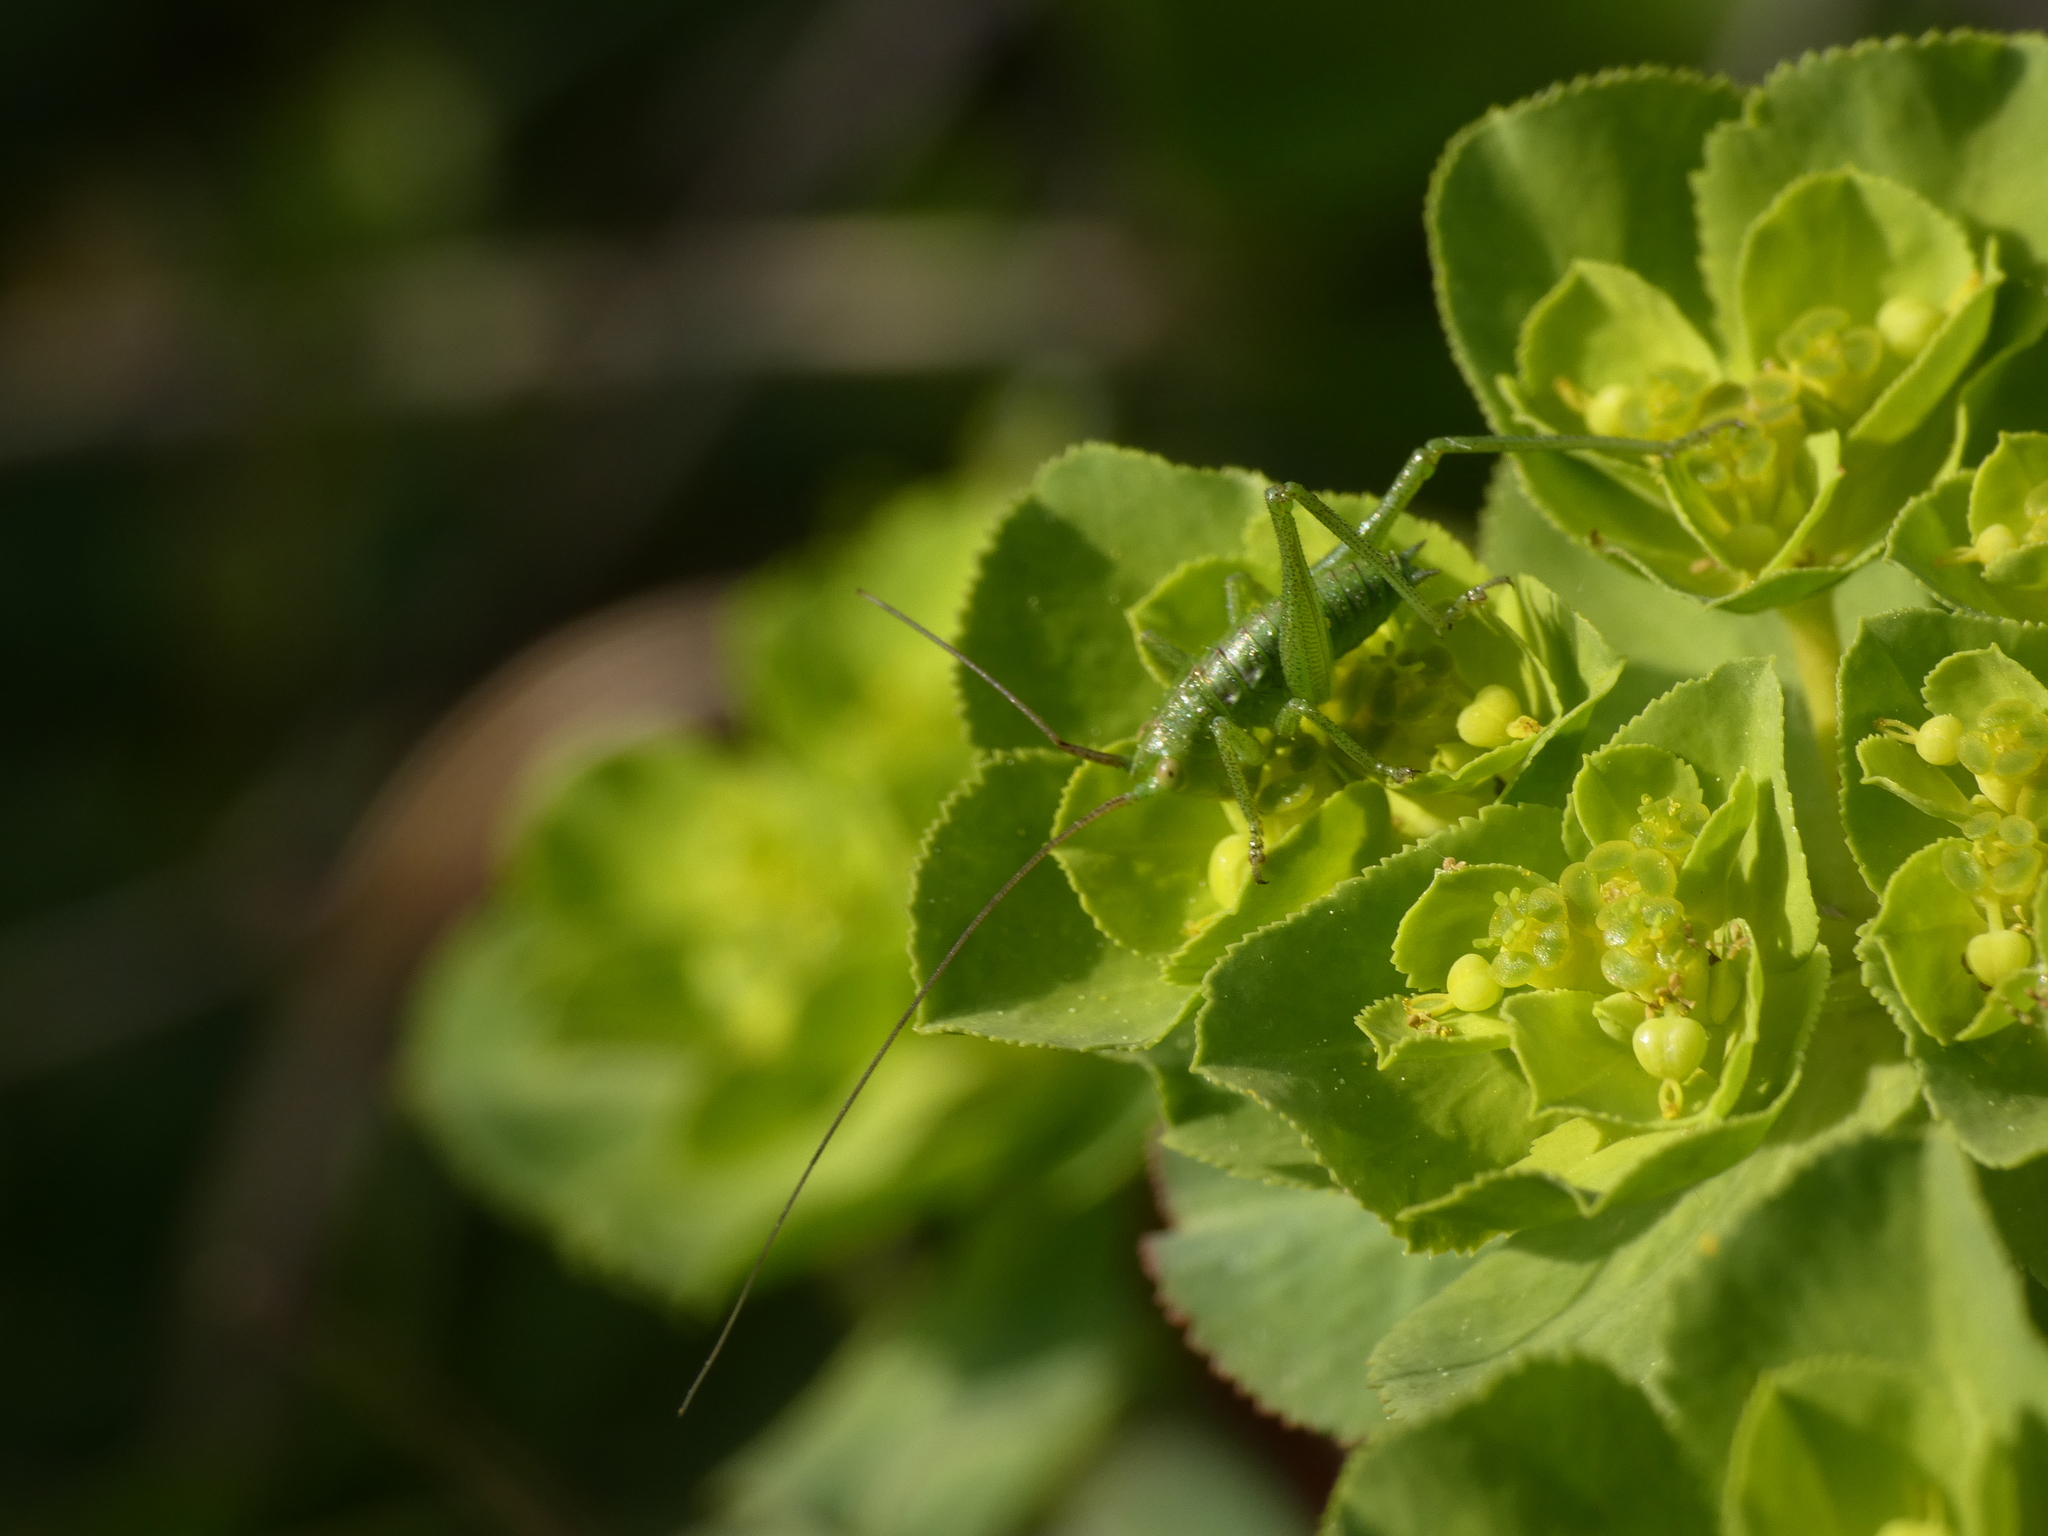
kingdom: Animalia
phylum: Arthropoda
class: Insecta
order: Orthoptera
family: Tettigoniidae
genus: Tettigonia
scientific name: Tettigonia viridissima
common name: Great green bush-cricket
